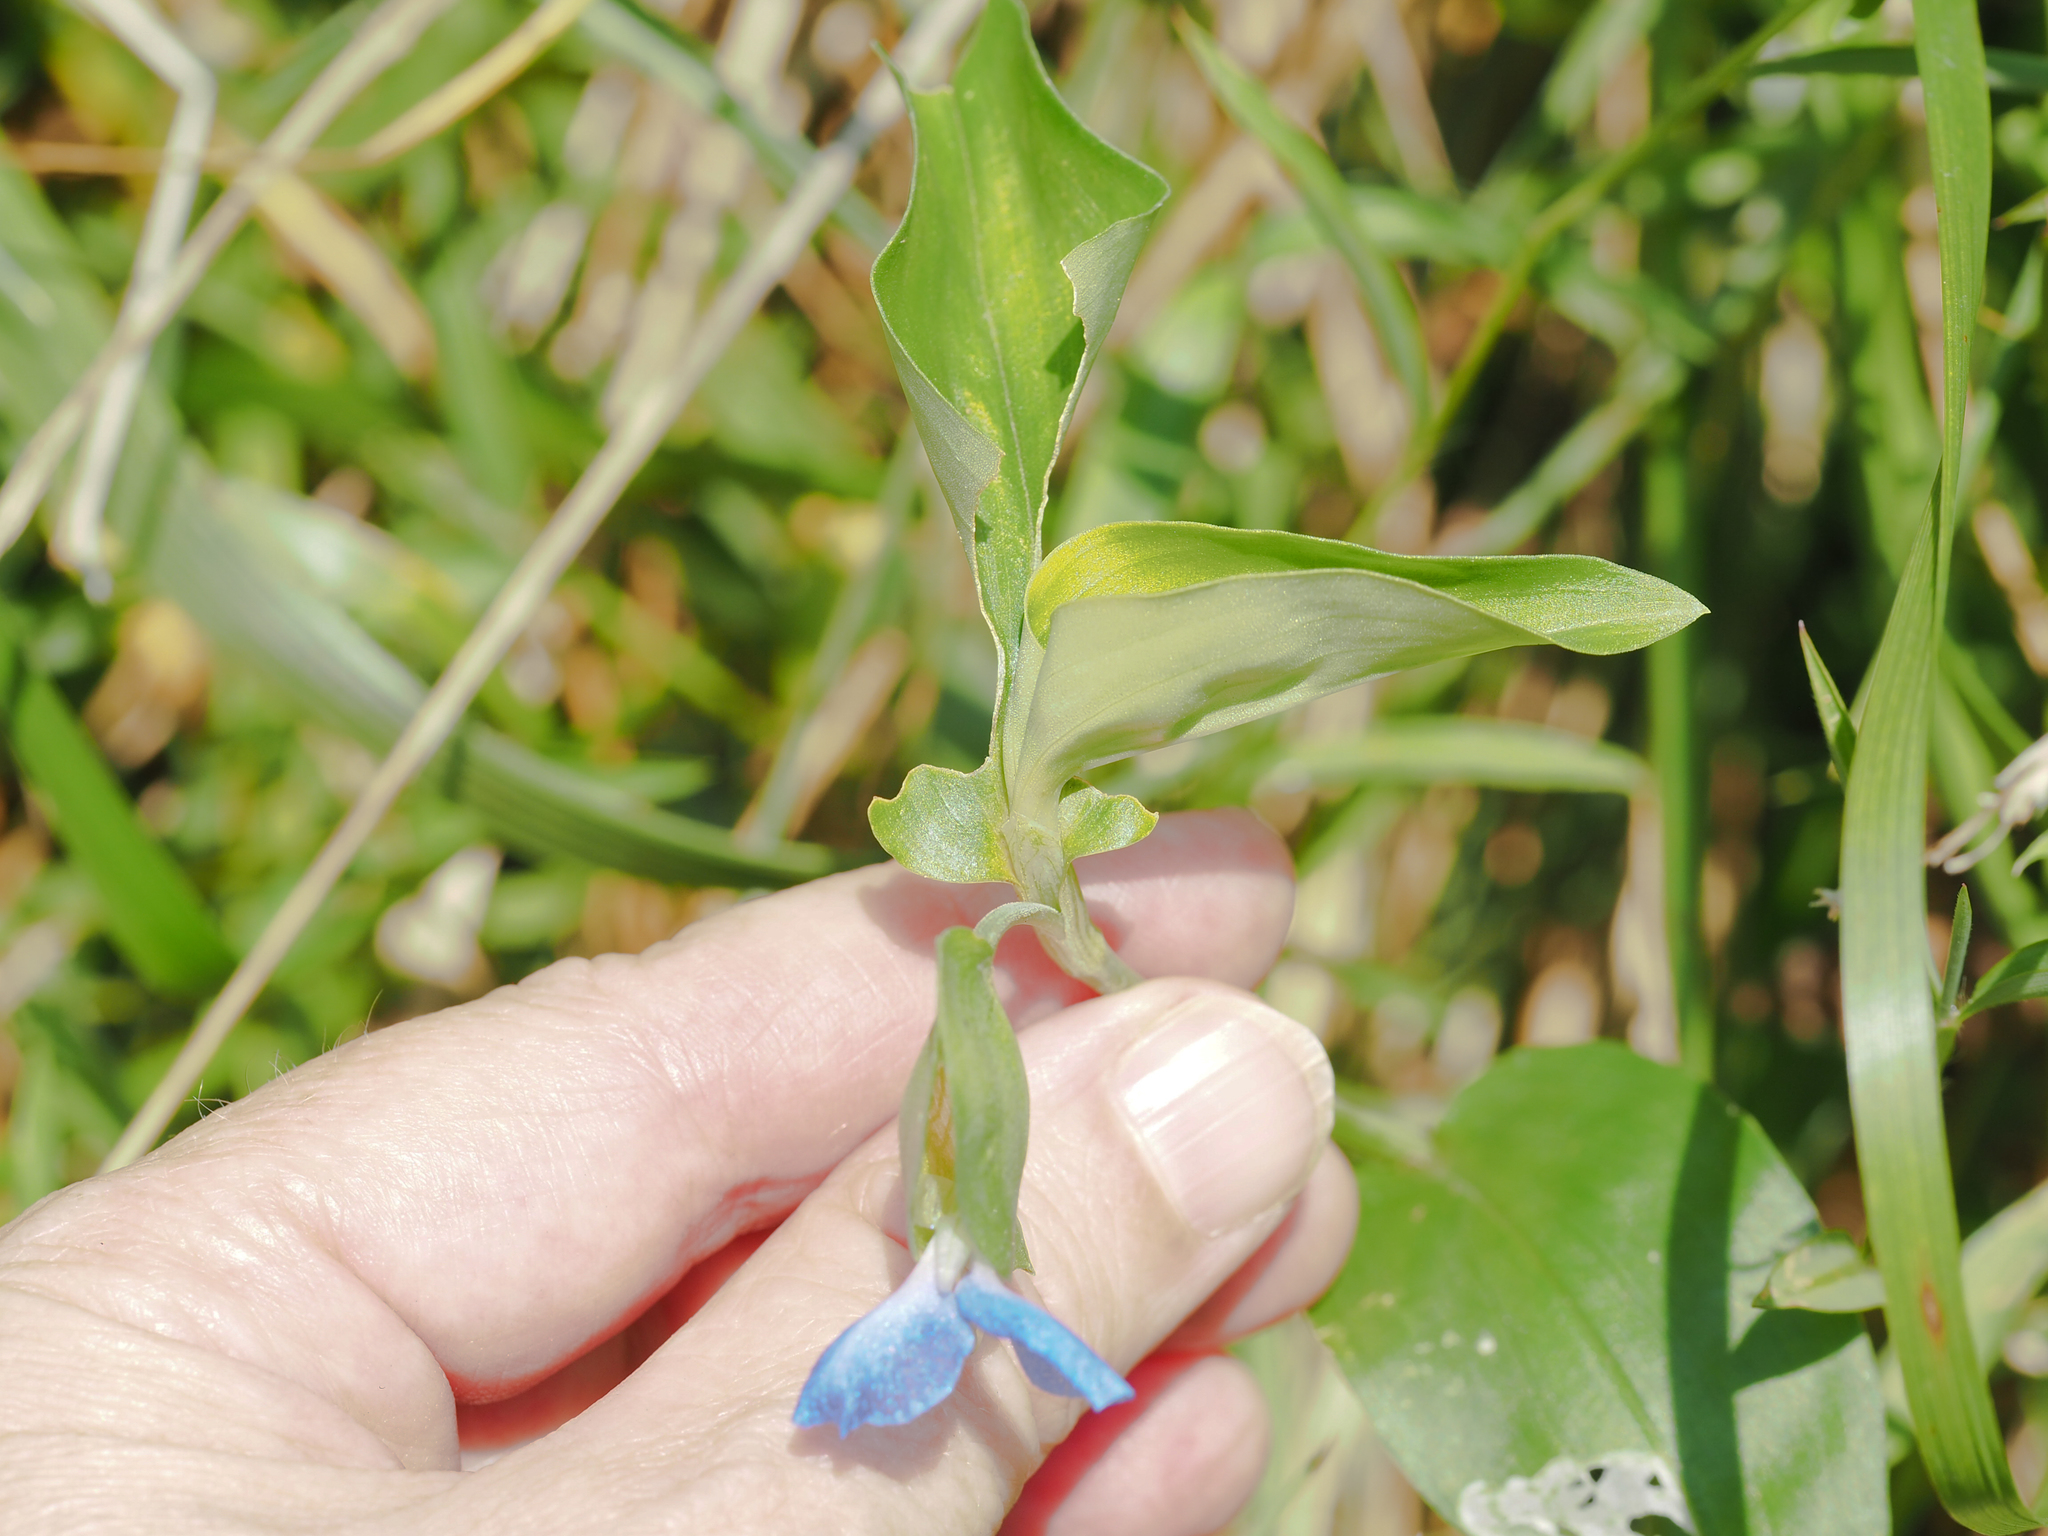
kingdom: Plantae
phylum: Tracheophyta
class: Liliopsida
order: Commelinales
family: Commelinaceae
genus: Commelina
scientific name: Commelina communis
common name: Asiatic dayflower
